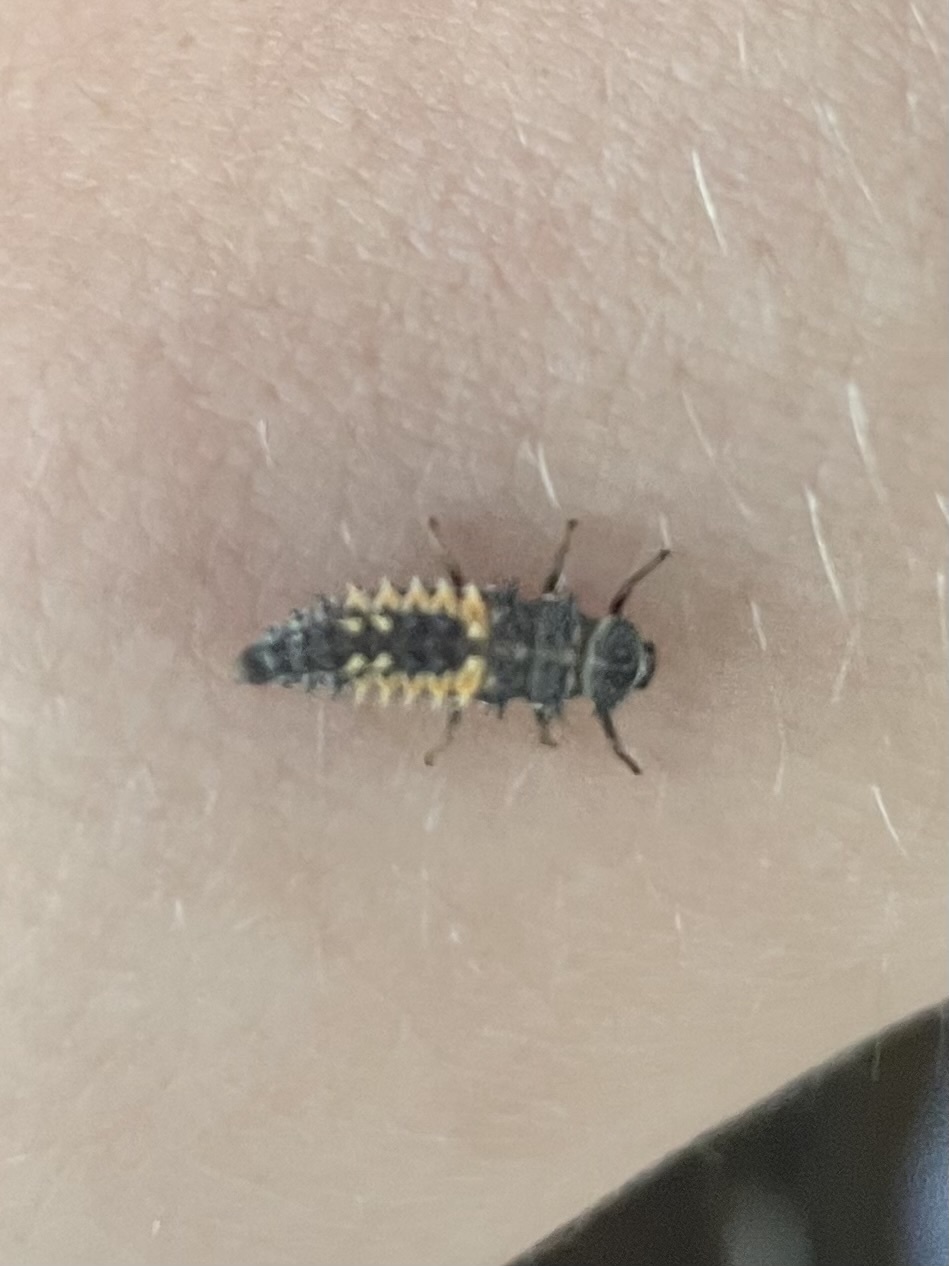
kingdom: Animalia
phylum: Arthropoda
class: Insecta
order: Coleoptera
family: Coccinellidae
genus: Harmonia
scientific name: Harmonia axyridis
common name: Harlequin ladybird
